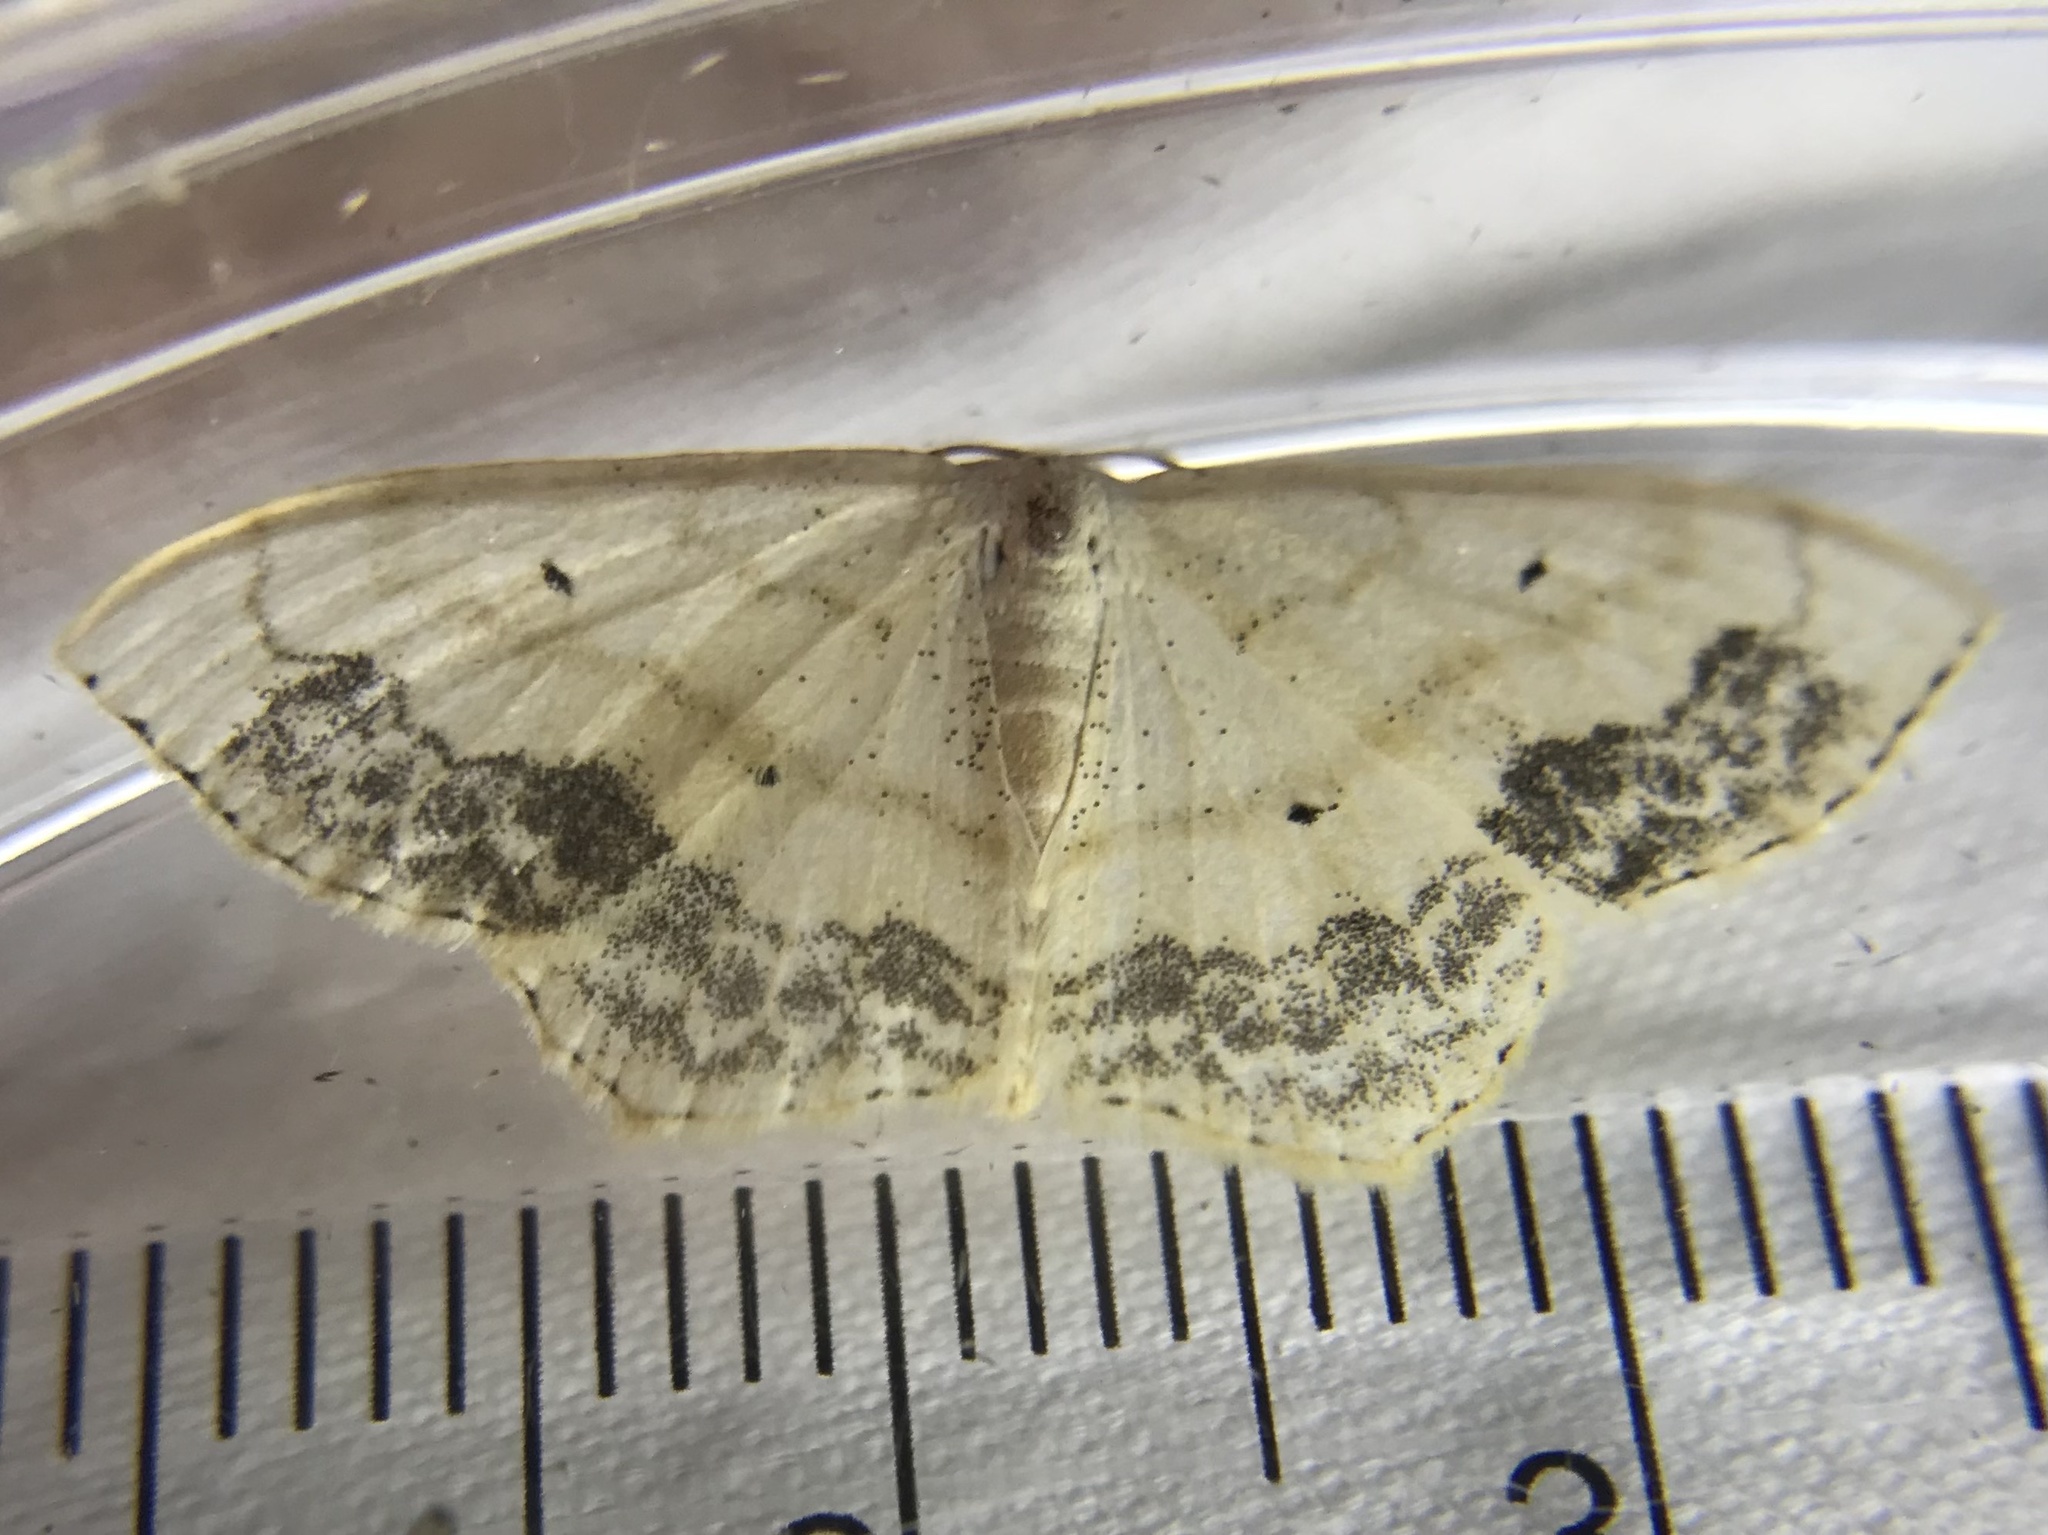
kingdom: Animalia
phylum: Arthropoda
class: Insecta
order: Lepidoptera
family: Geometridae
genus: Scopula
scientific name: Scopula limboundata
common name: Large lace border
